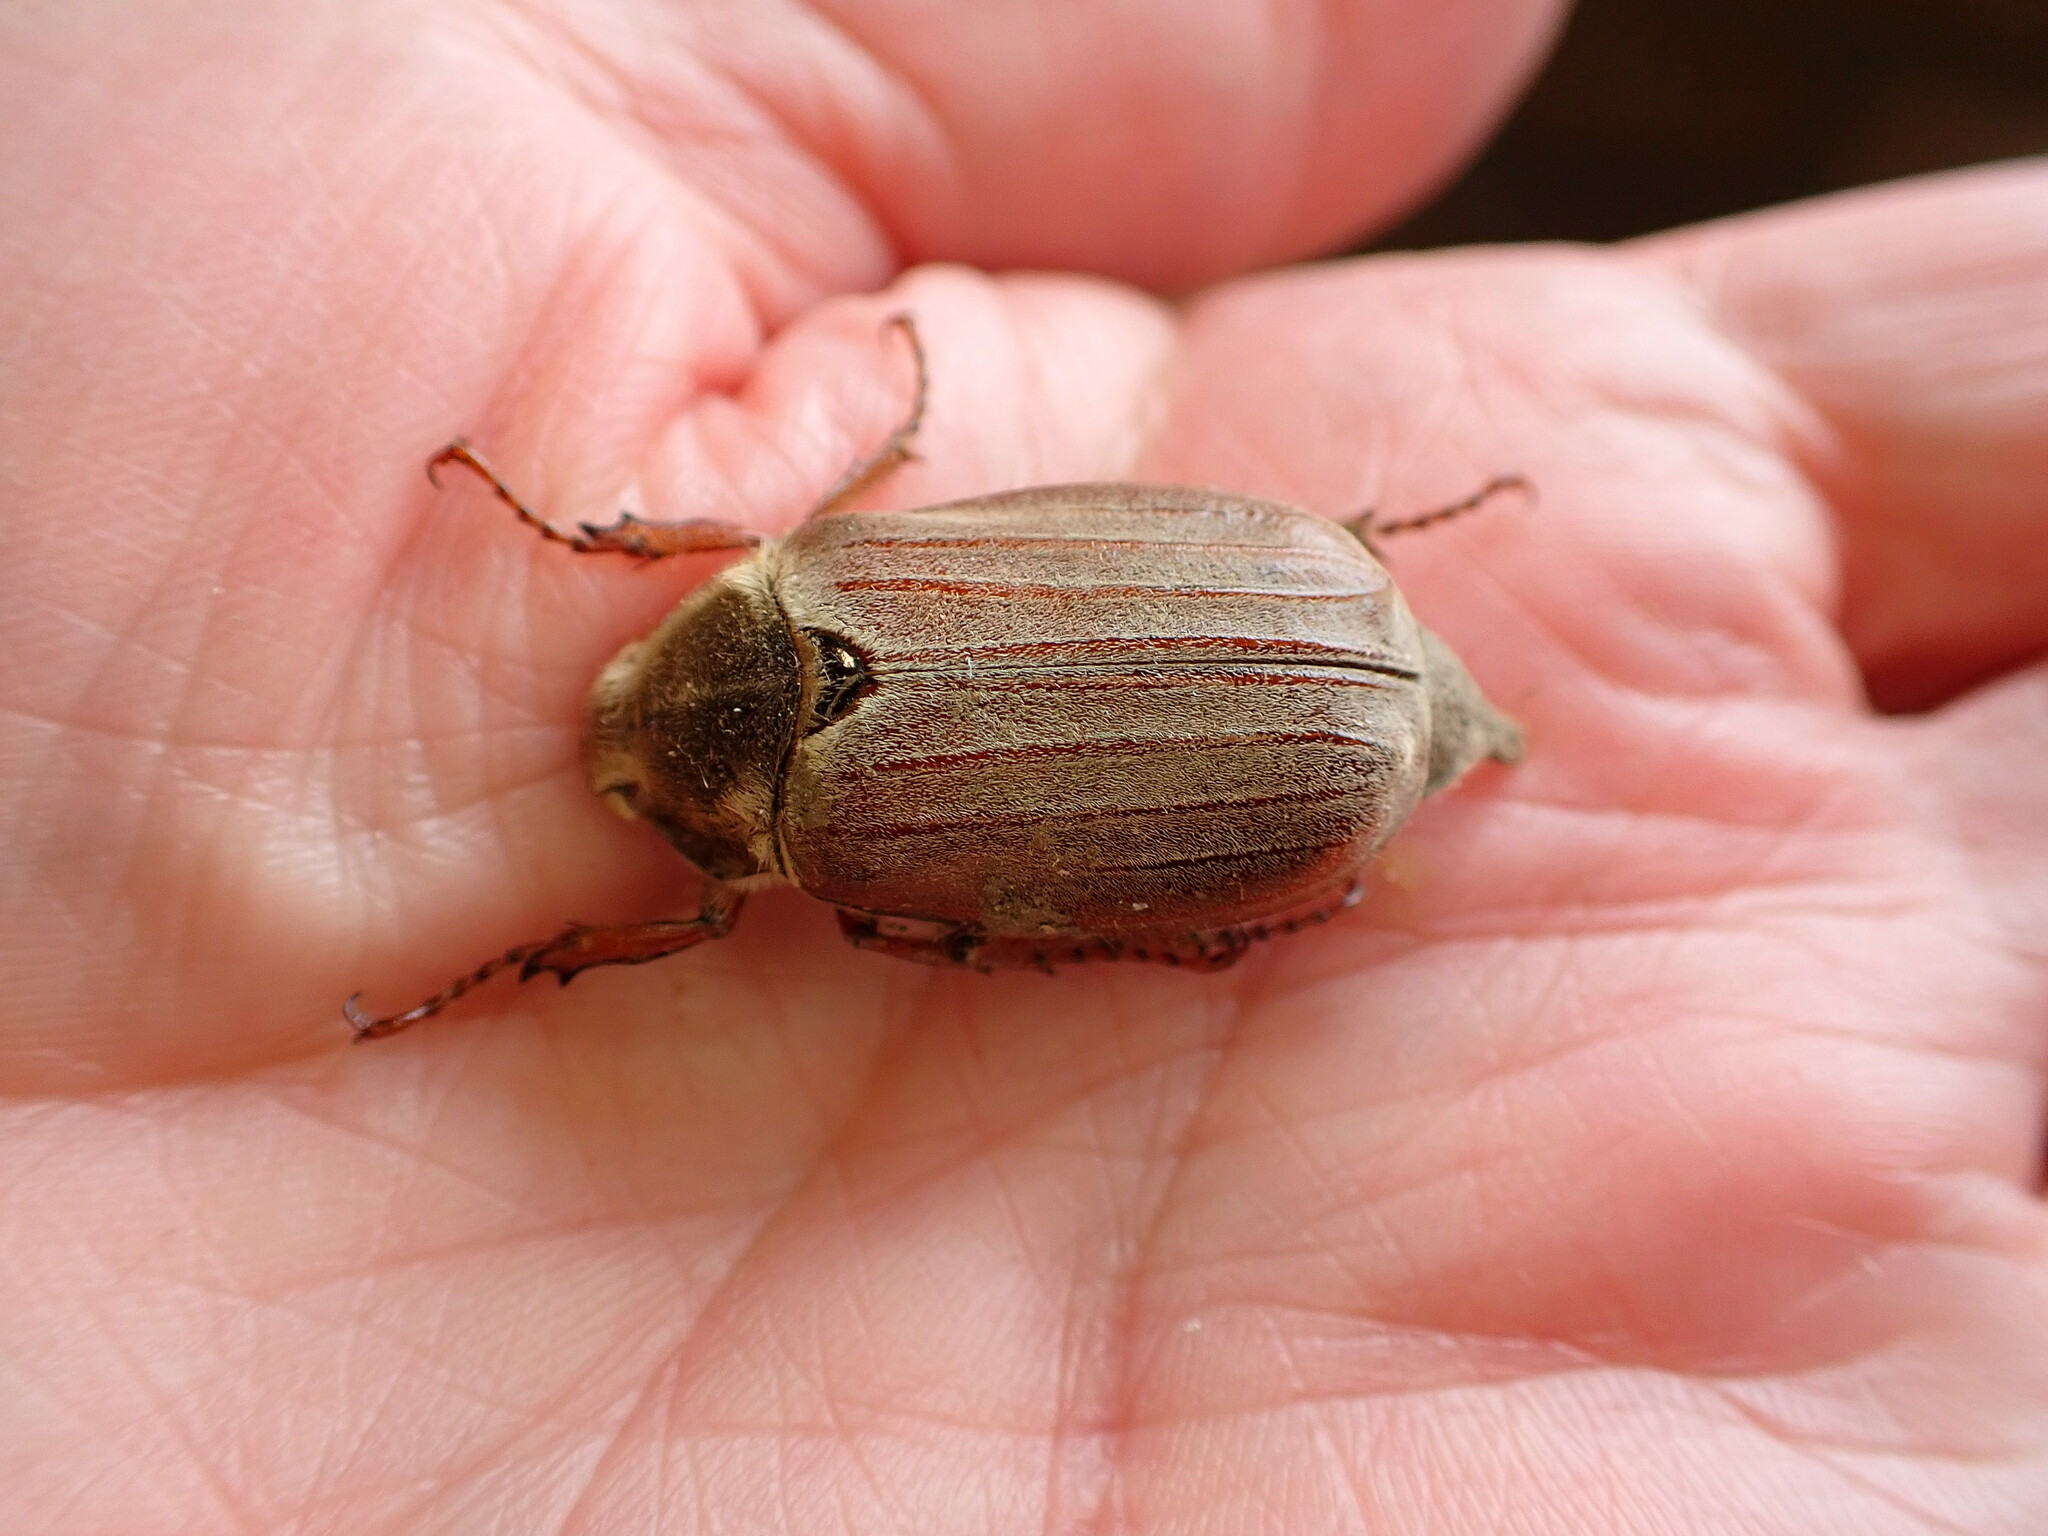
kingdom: Animalia
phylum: Arthropoda
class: Insecta
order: Coleoptera
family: Scarabaeidae
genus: Melolontha
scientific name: Melolontha melolontha
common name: Cockchafer maybeetle
